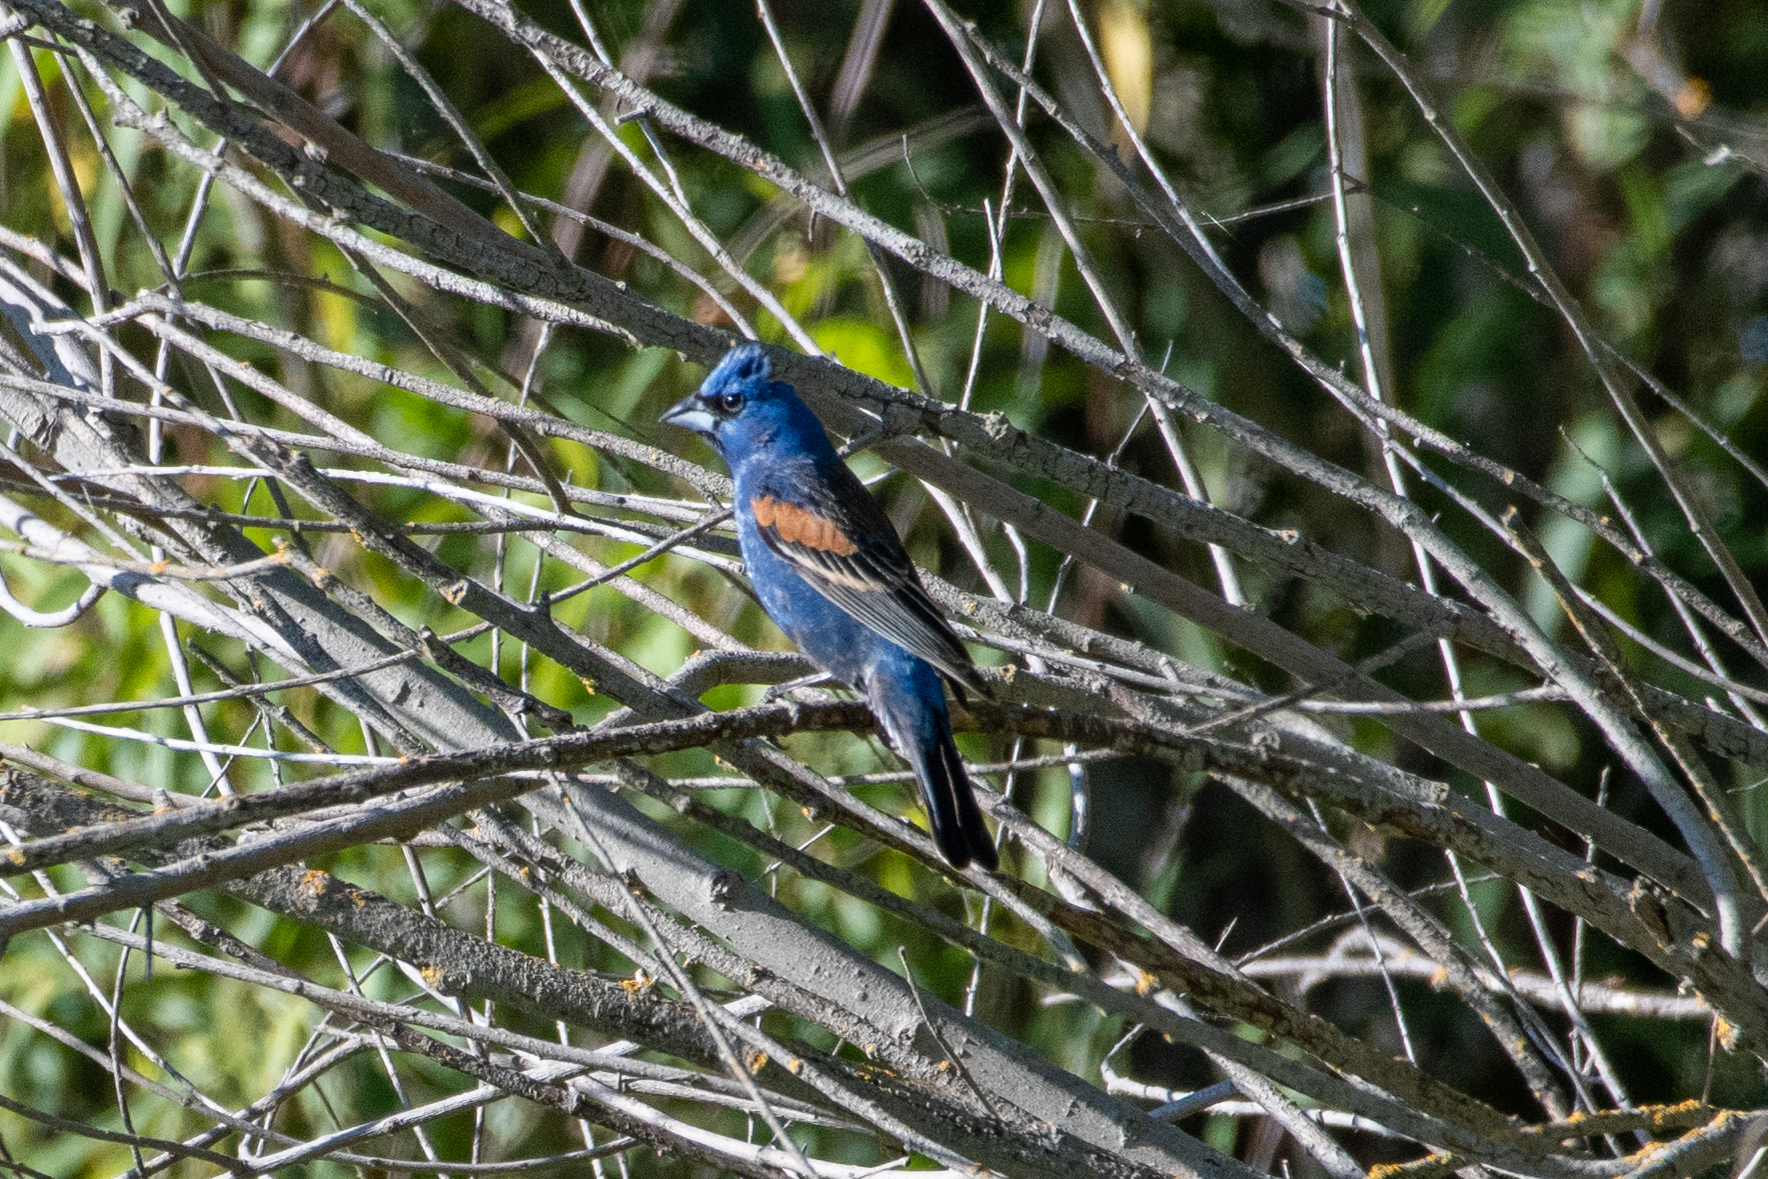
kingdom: Animalia
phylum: Chordata
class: Aves
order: Passeriformes
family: Cardinalidae
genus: Passerina
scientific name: Passerina caerulea
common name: Blue grosbeak
